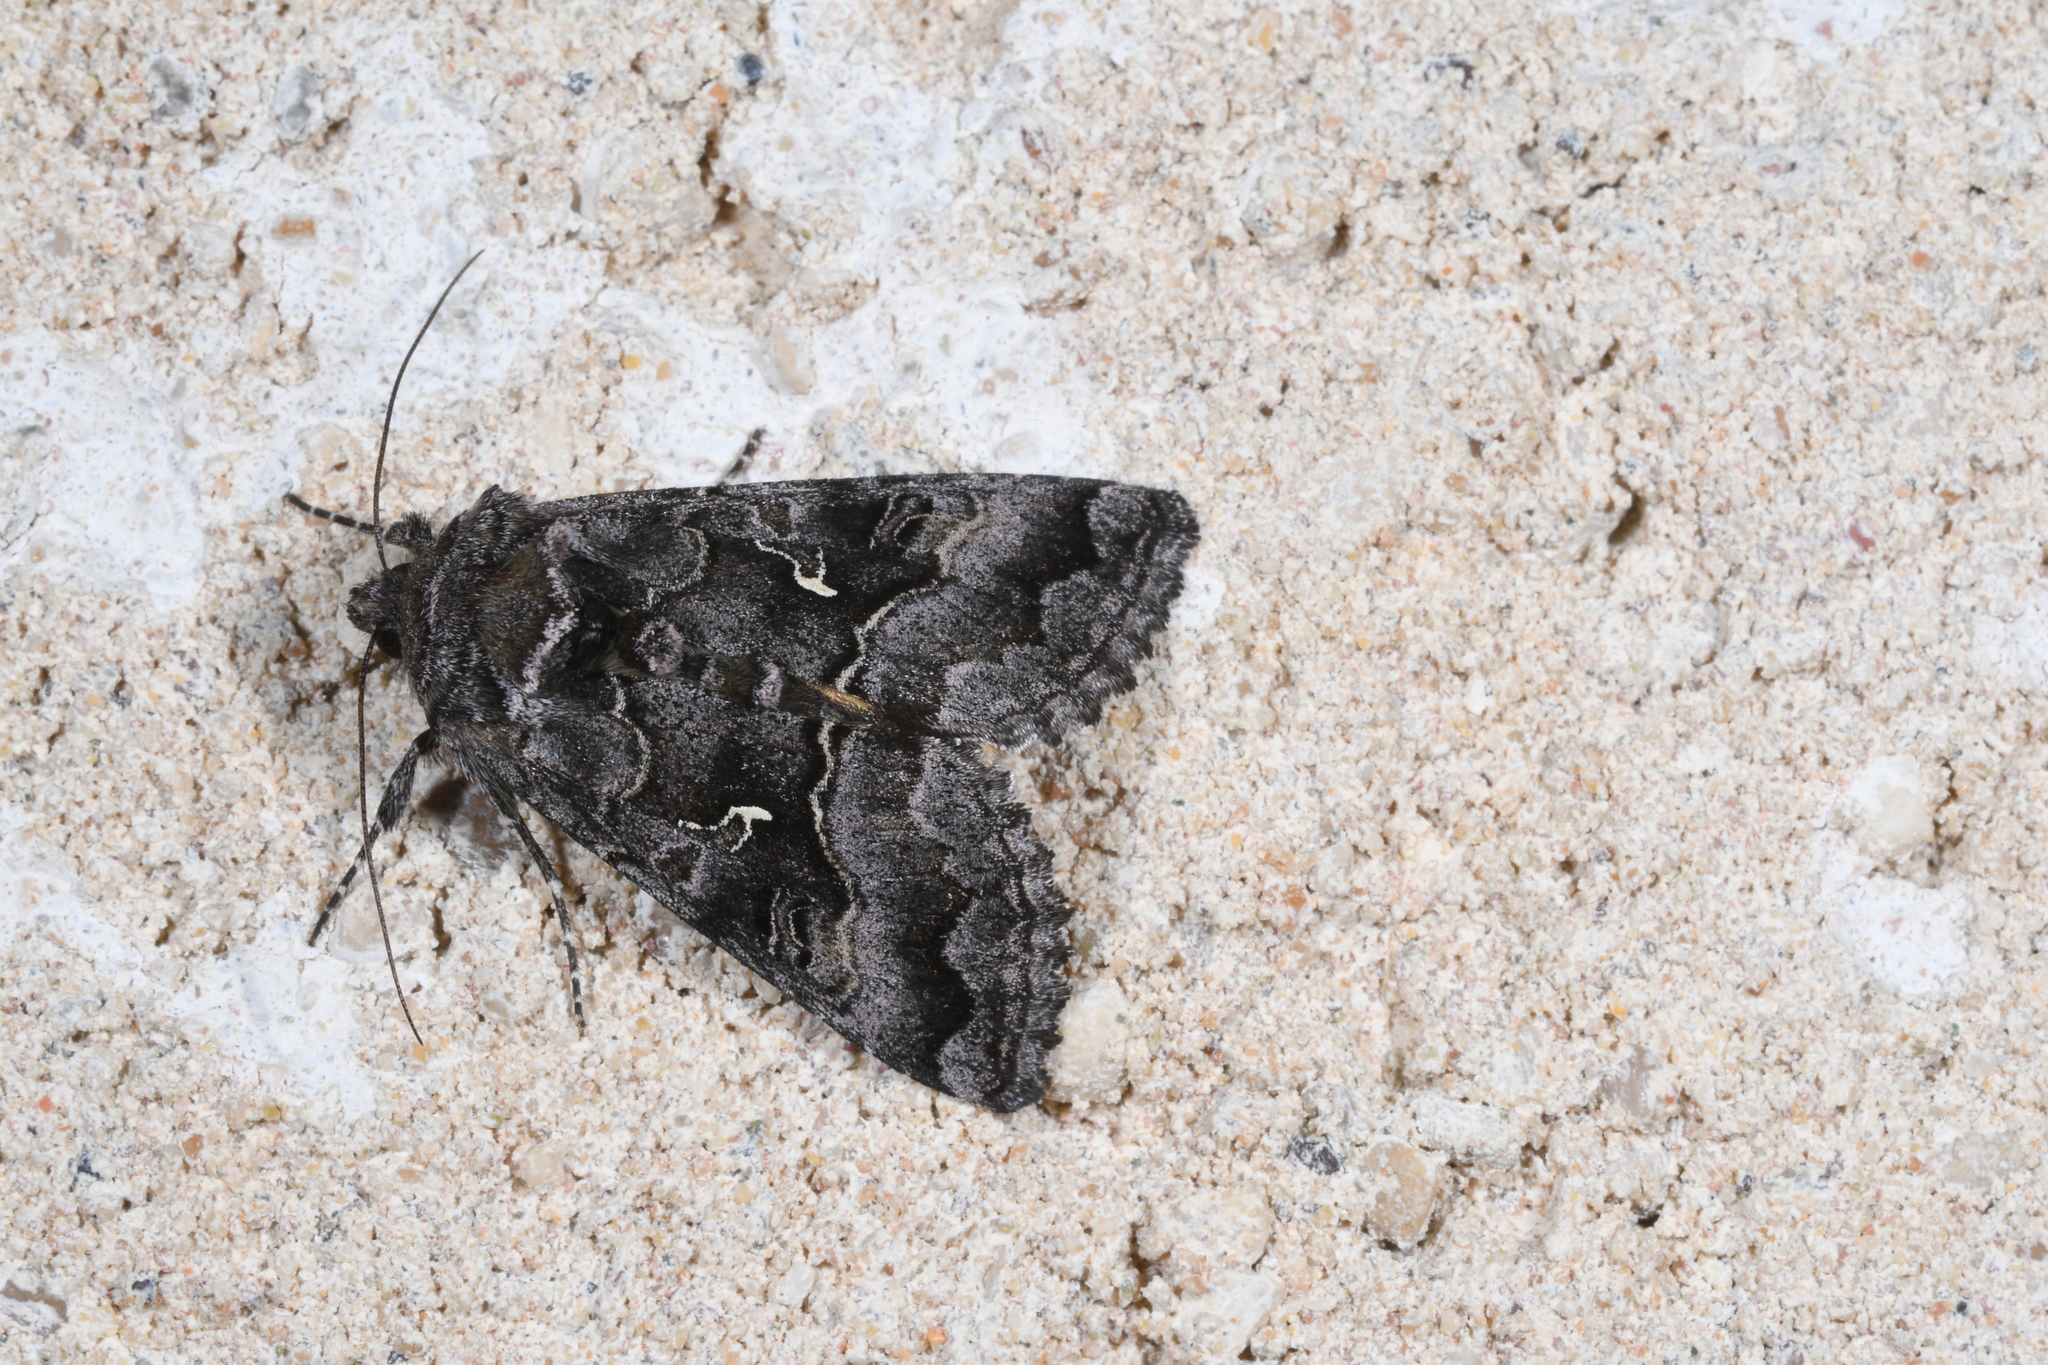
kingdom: Animalia
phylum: Arthropoda
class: Insecta
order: Lepidoptera
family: Noctuidae
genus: Syngrapha
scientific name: Syngrapha ain
